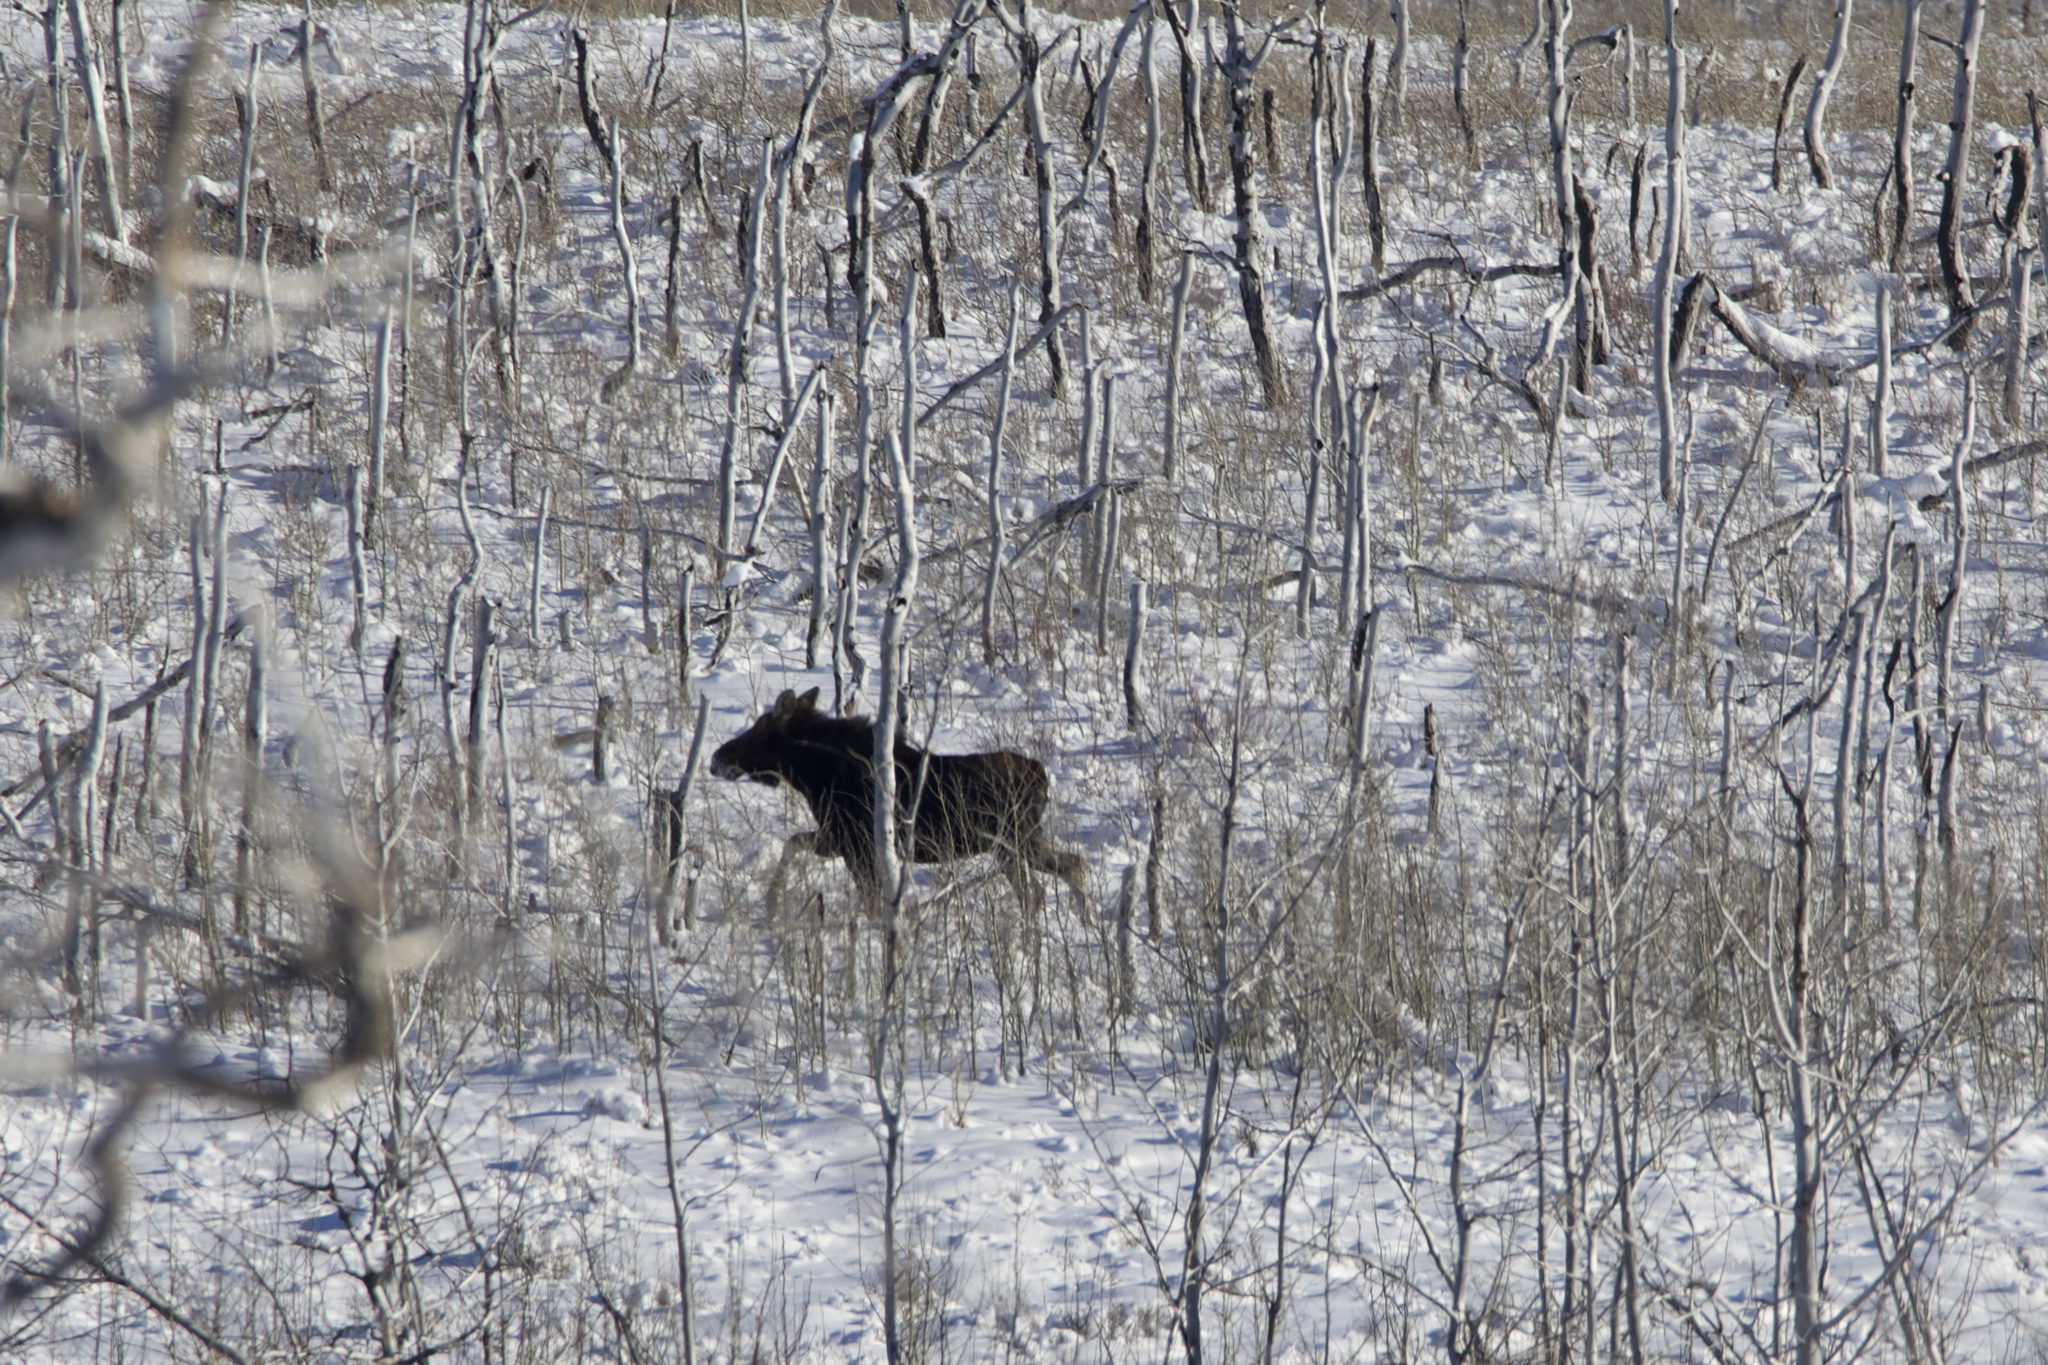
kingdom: Animalia
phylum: Chordata
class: Mammalia
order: Artiodactyla
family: Cervidae
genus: Alces
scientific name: Alces alces
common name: Moose
